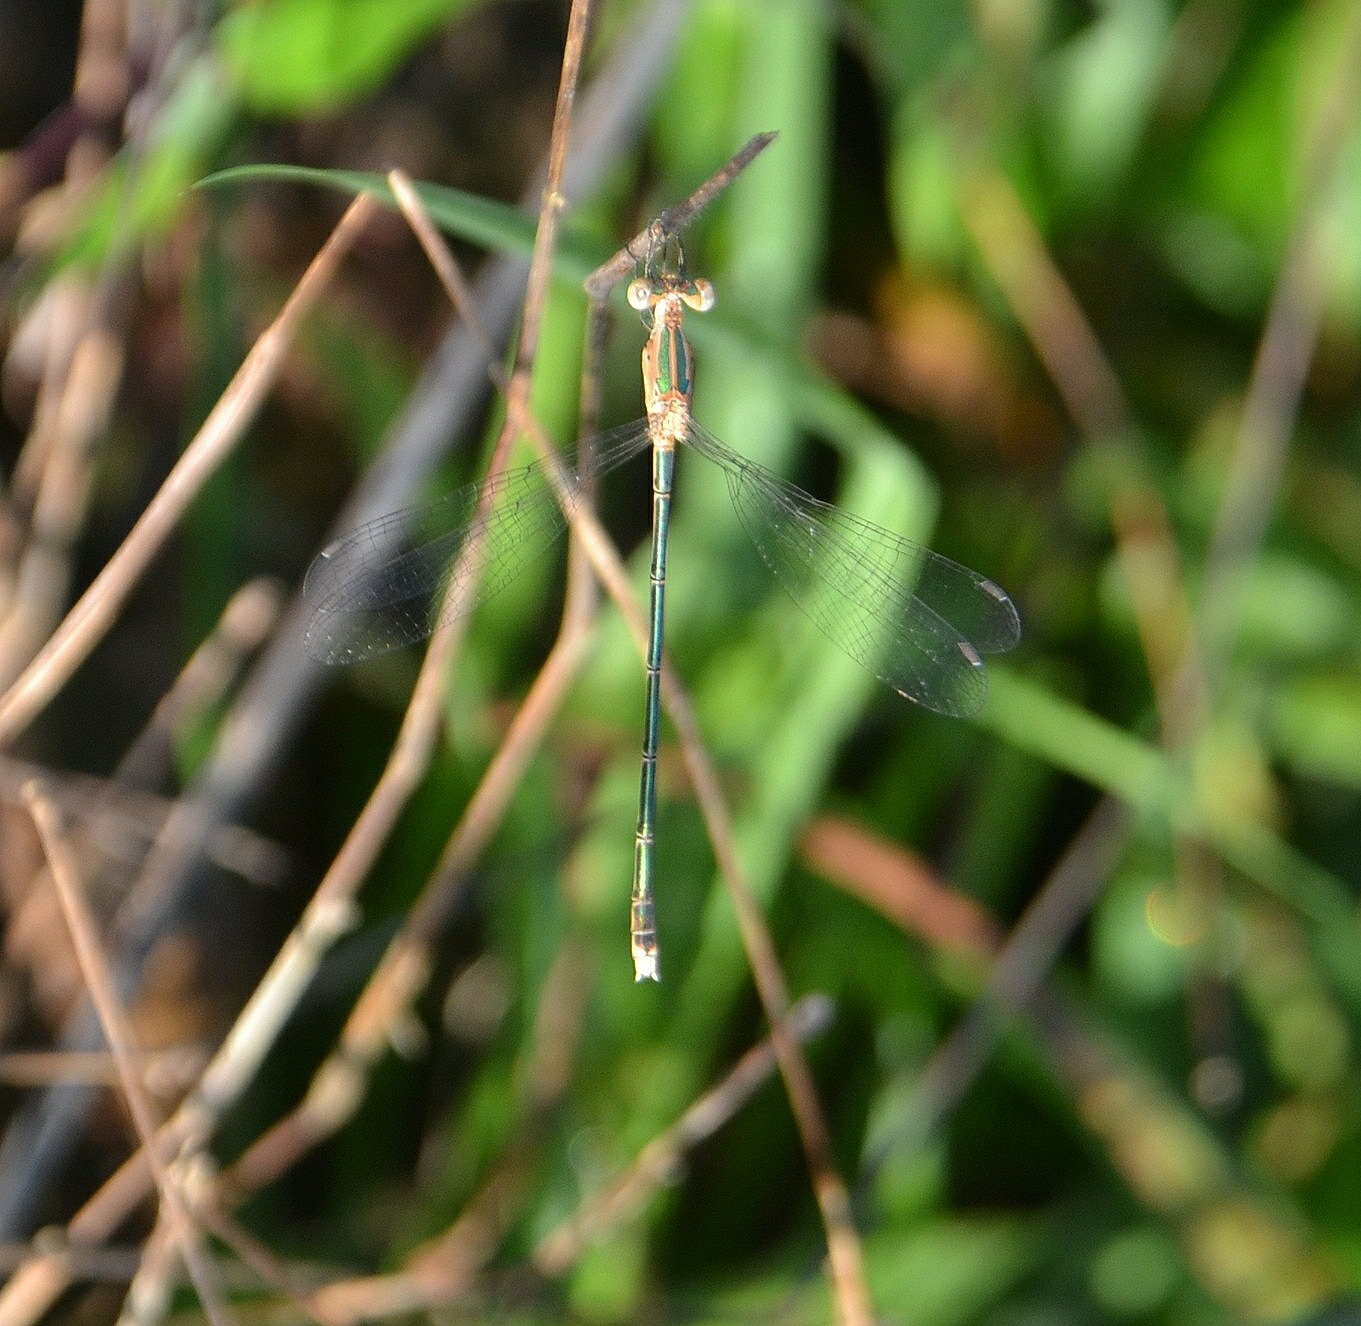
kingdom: Animalia
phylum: Arthropoda
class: Insecta
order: Odonata
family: Lestidae
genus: Lestes
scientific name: Lestes elatus
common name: Emerald spreadwing
